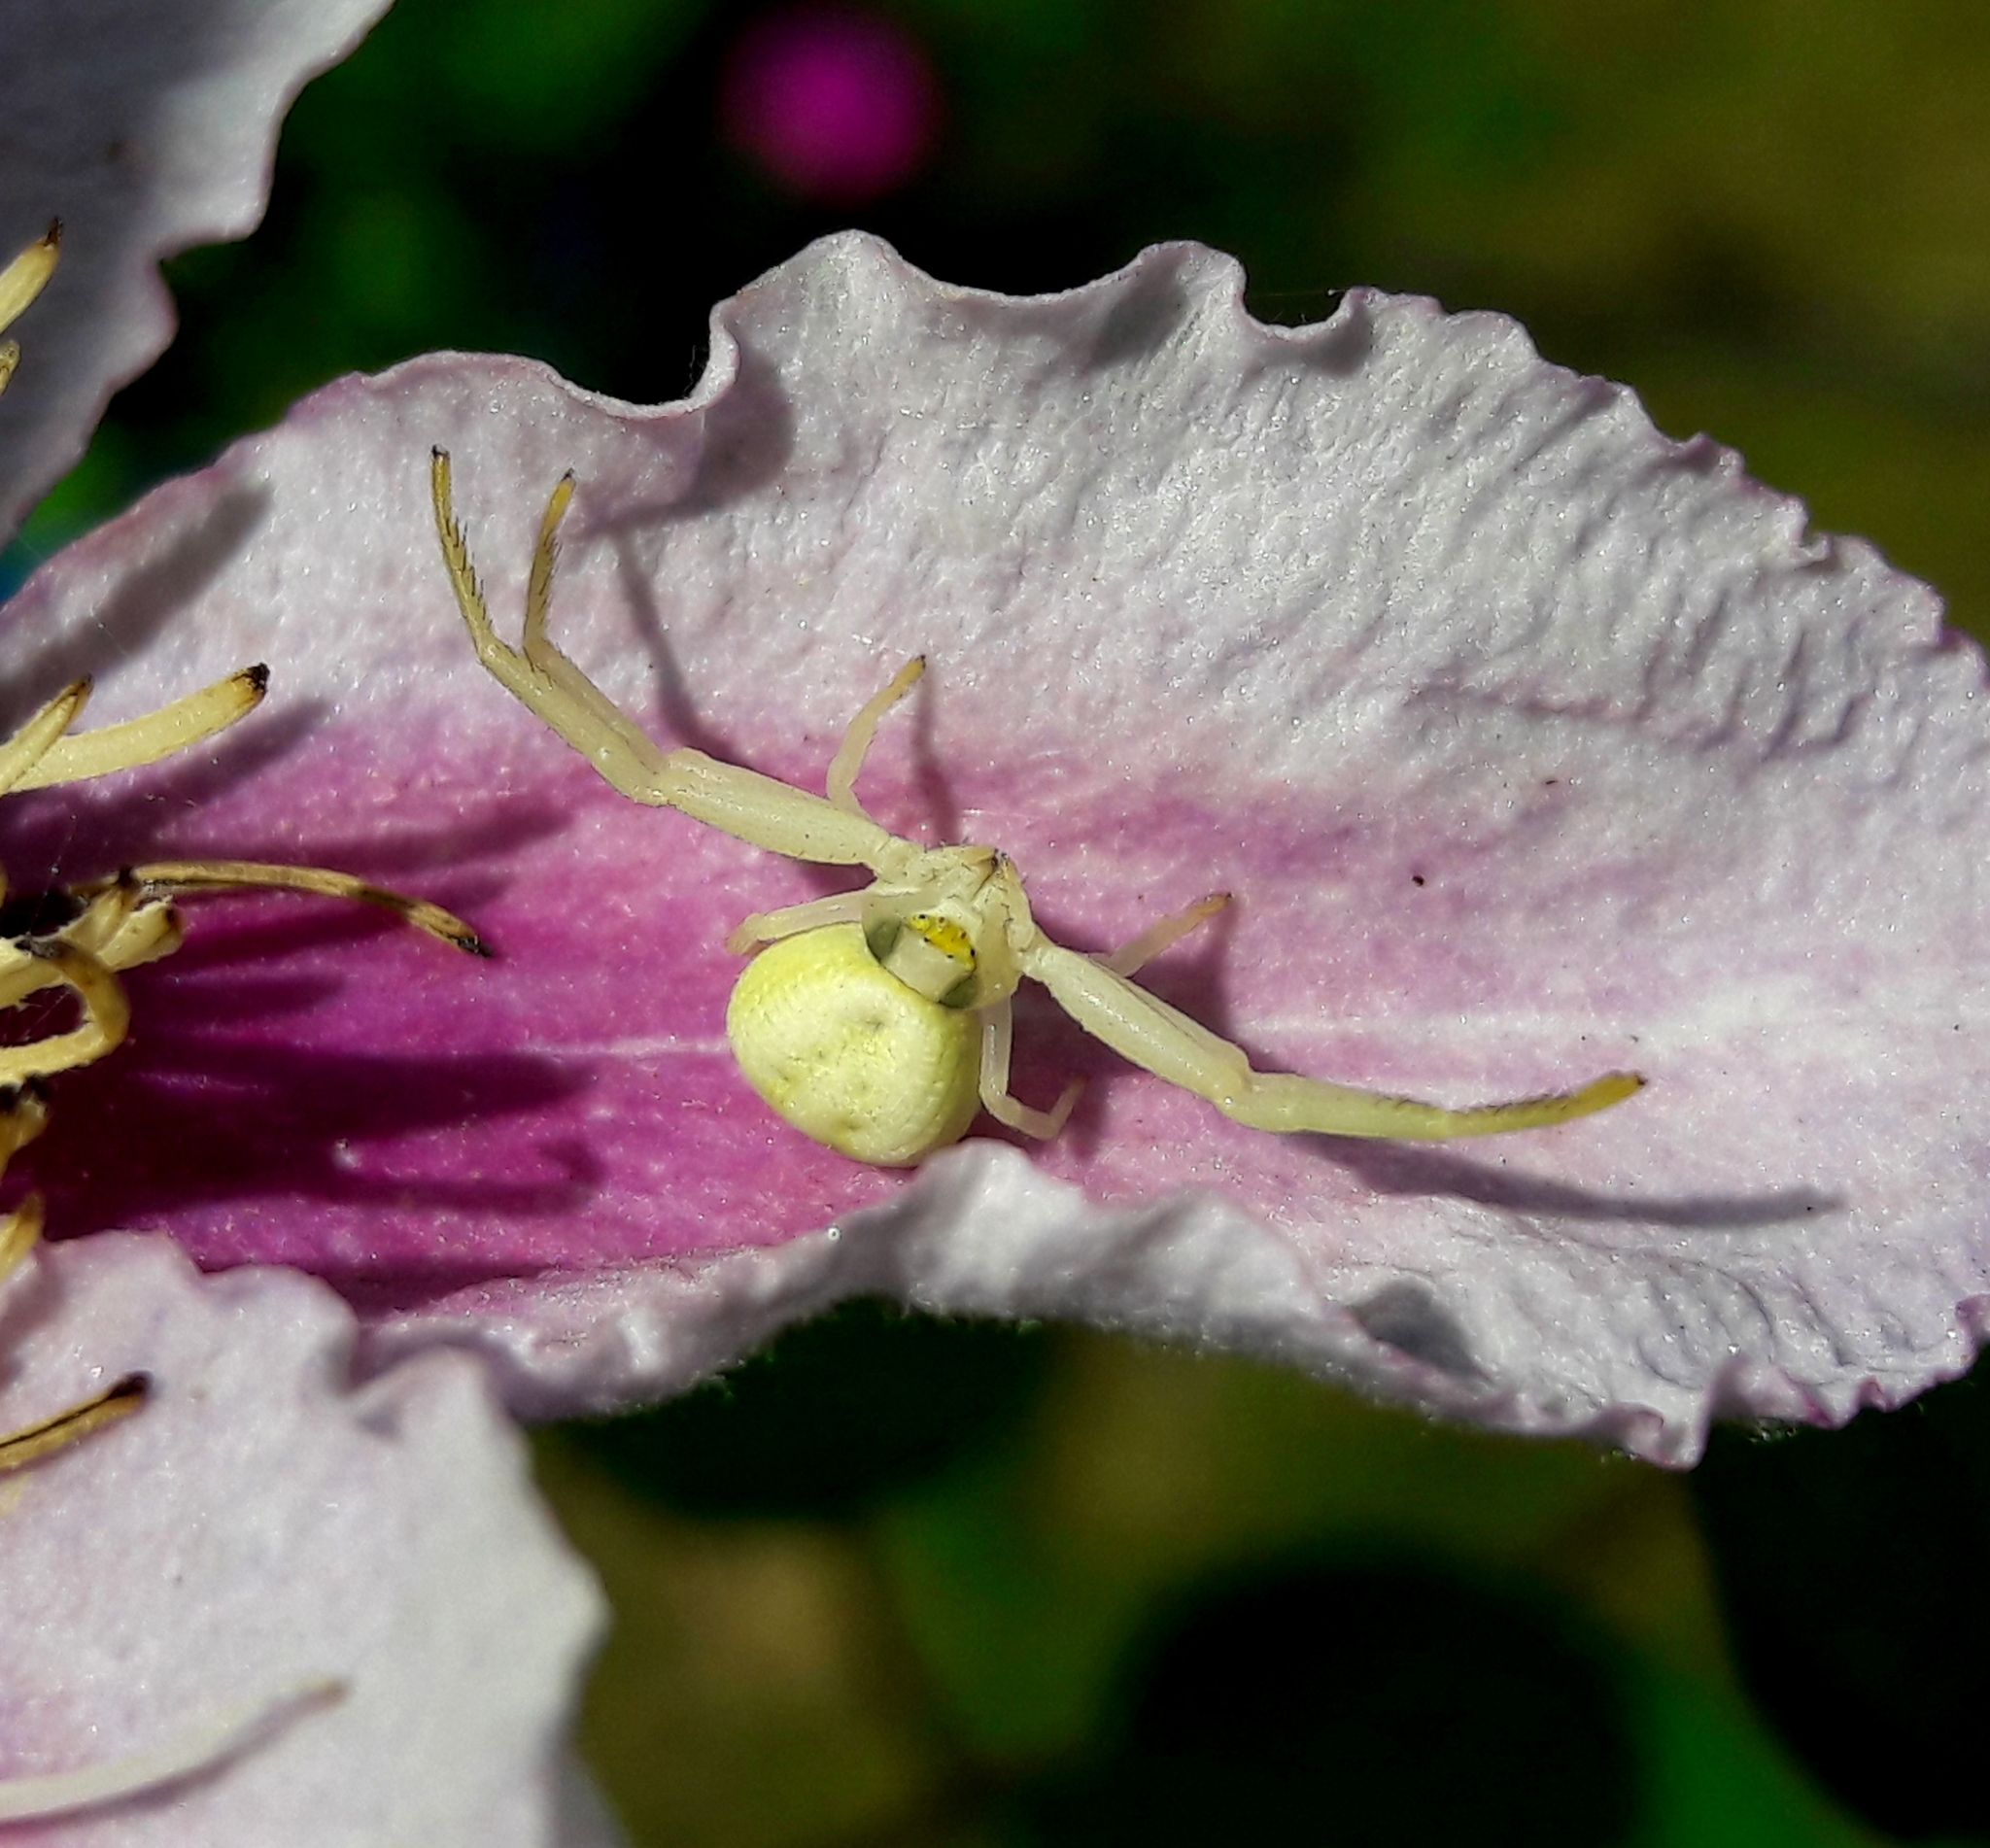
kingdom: Animalia
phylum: Arthropoda
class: Arachnida
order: Araneae
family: Thomisidae
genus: Misumena
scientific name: Misumena vatia
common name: Goldenrod crab spider
